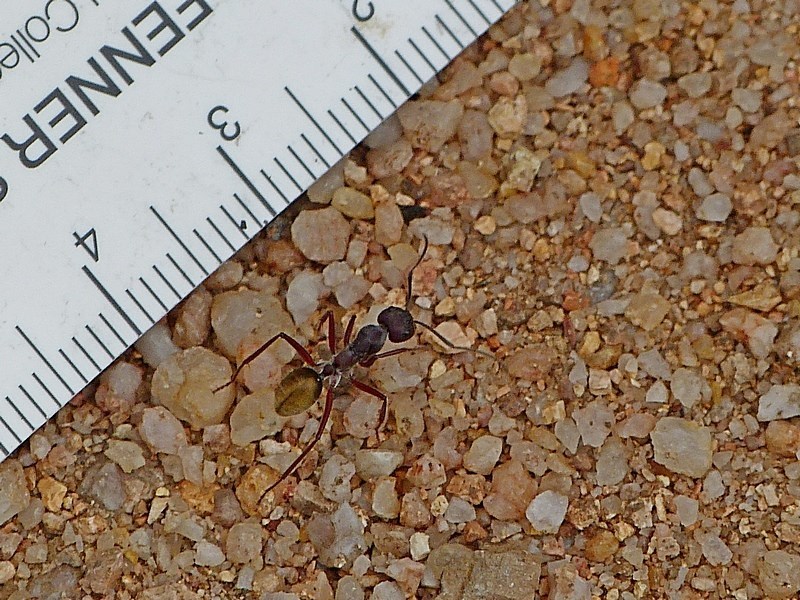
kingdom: Animalia
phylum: Arthropoda
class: Insecta
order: Hymenoptera
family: Formicidae
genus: Camponotus
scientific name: Camponotus suffusus
